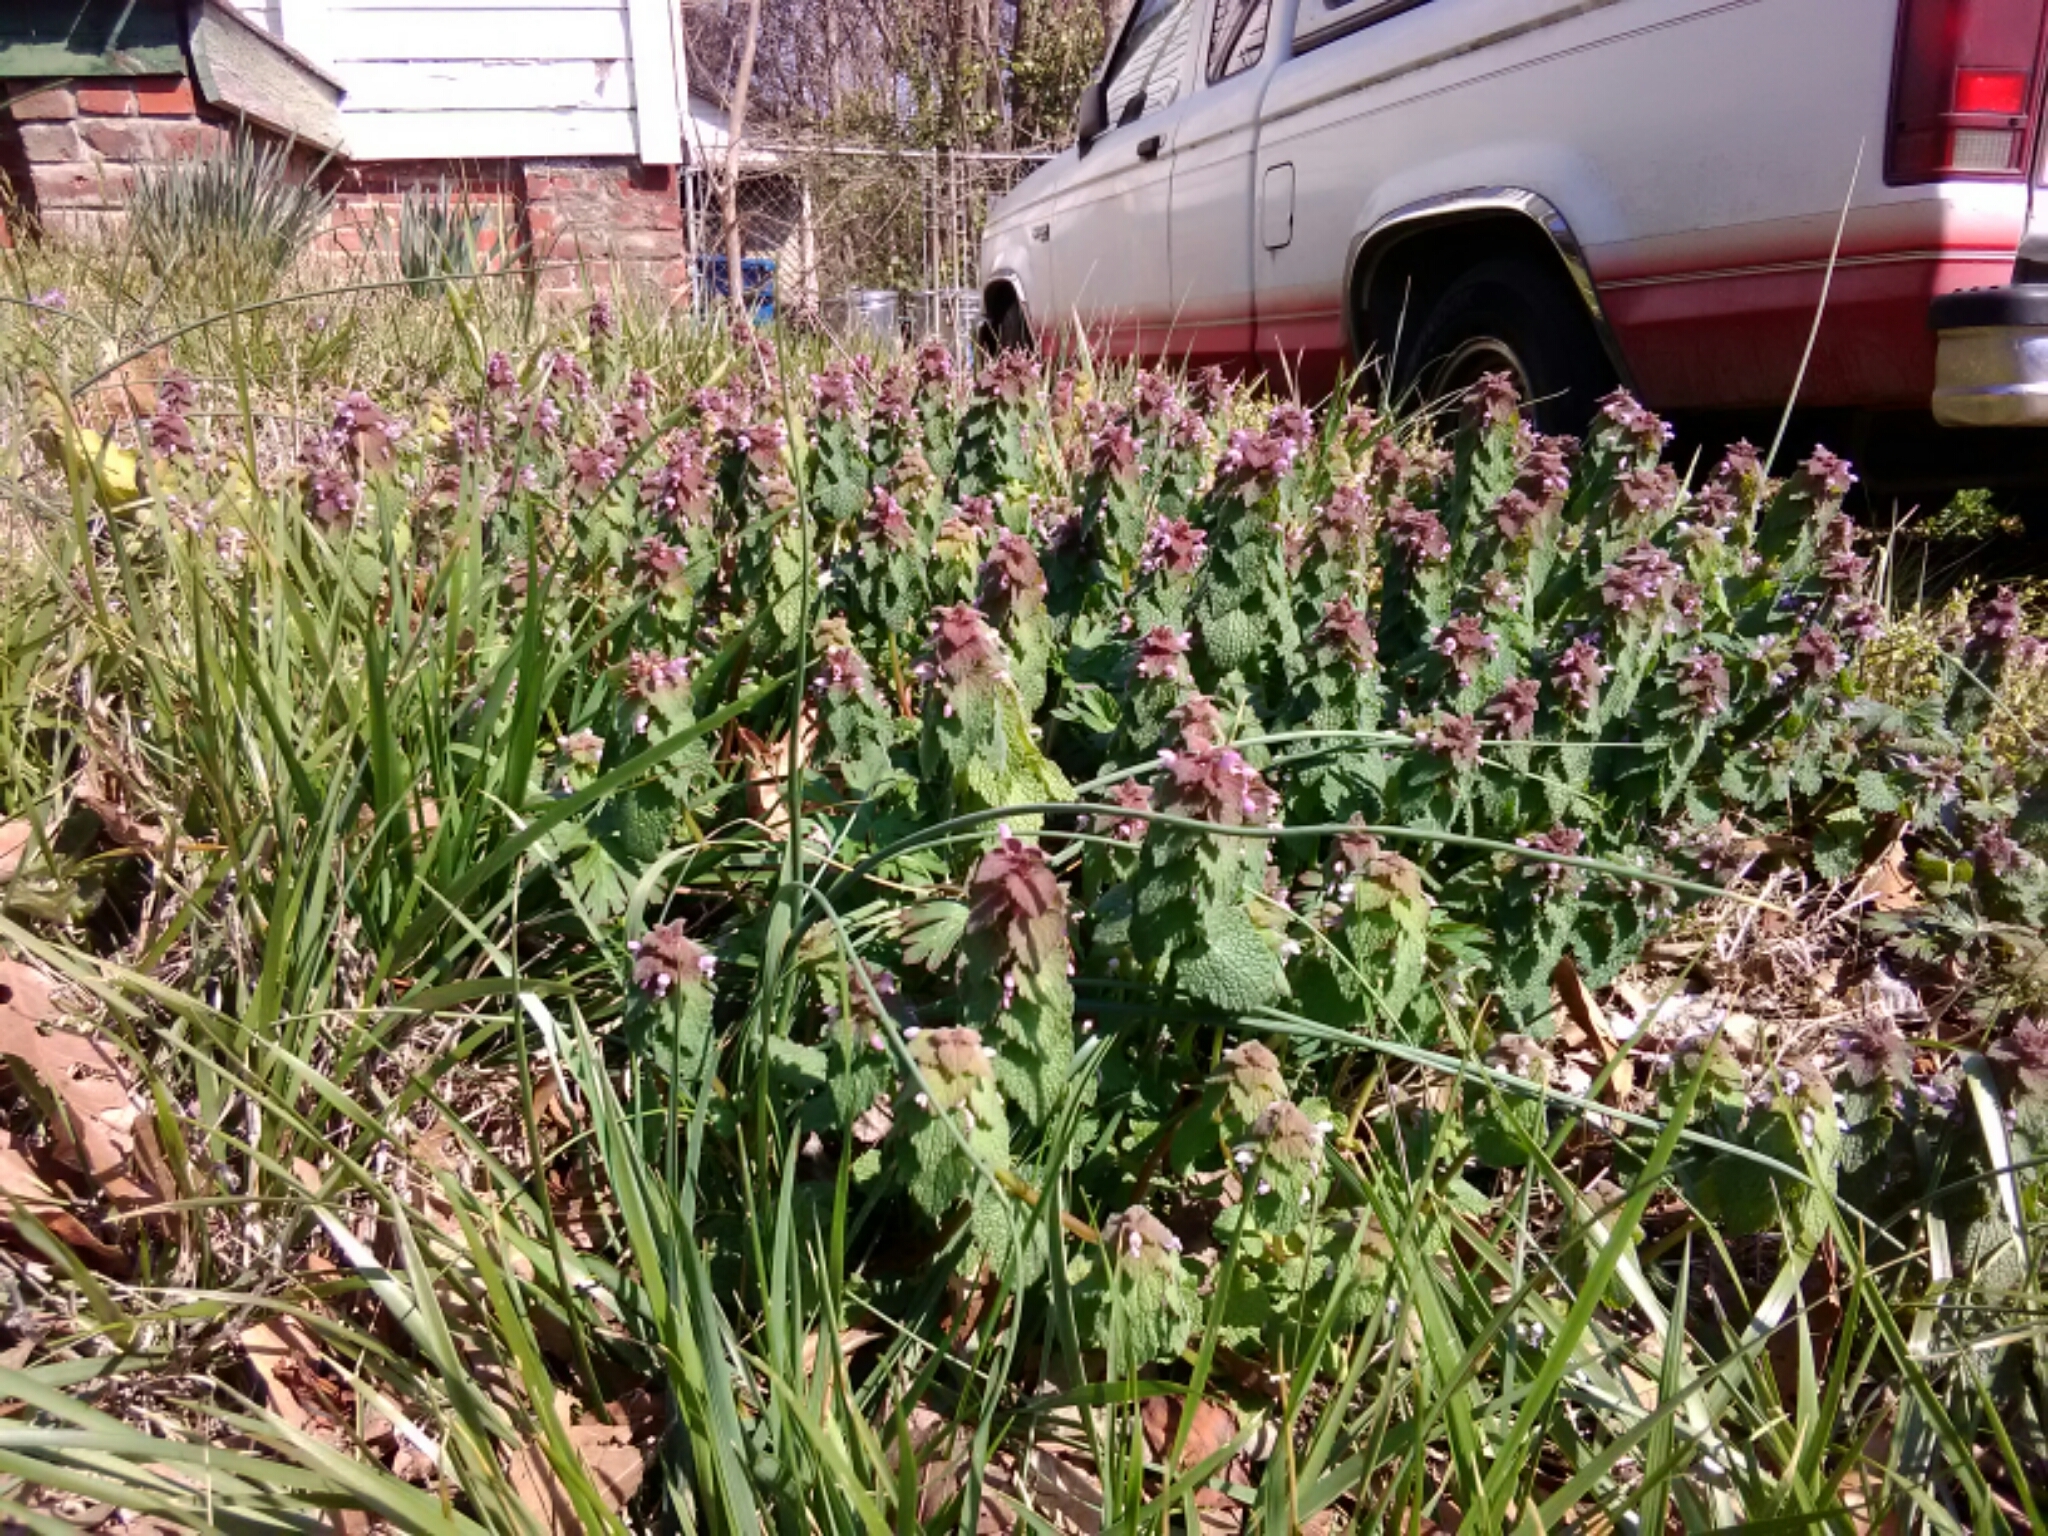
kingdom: Plantae
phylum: Tracheophyta
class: Magnoliopsida
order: Lamiales
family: Lamiaceae
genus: Lamium
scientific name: Lamium purpureum
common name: Red dead-nettle
